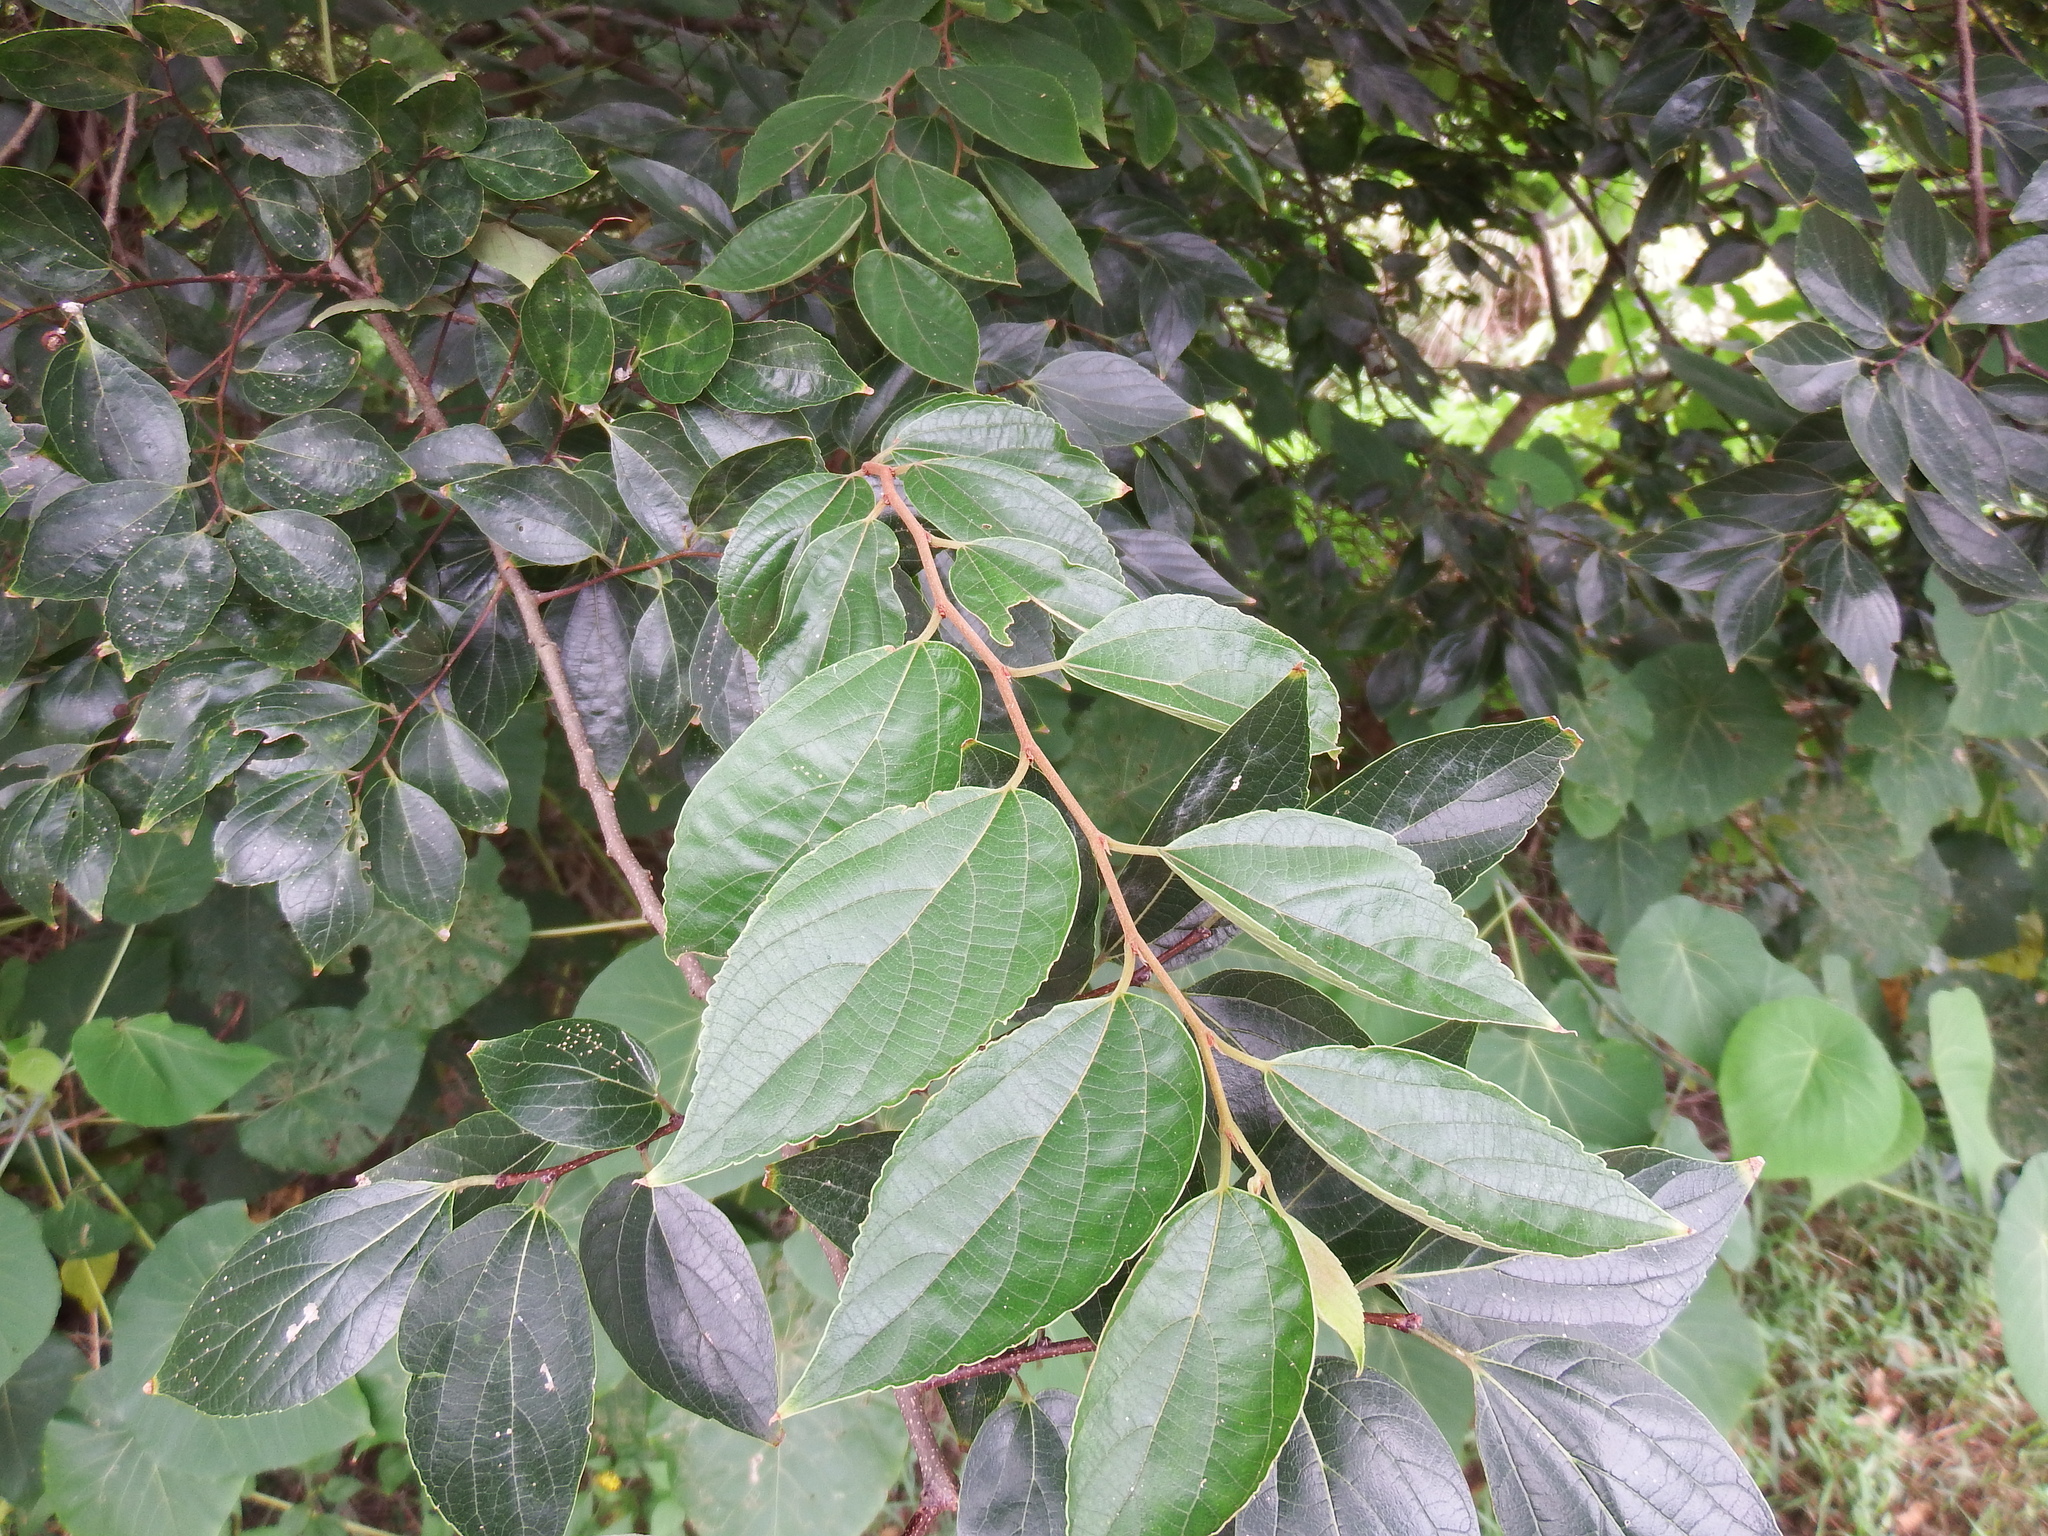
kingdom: Plantae
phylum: Tracheophyta
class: Magnoliopsida
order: Rosales
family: Cannabaceae
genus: Celtis
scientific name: Celtis sinensis
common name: Chinese hackberry
